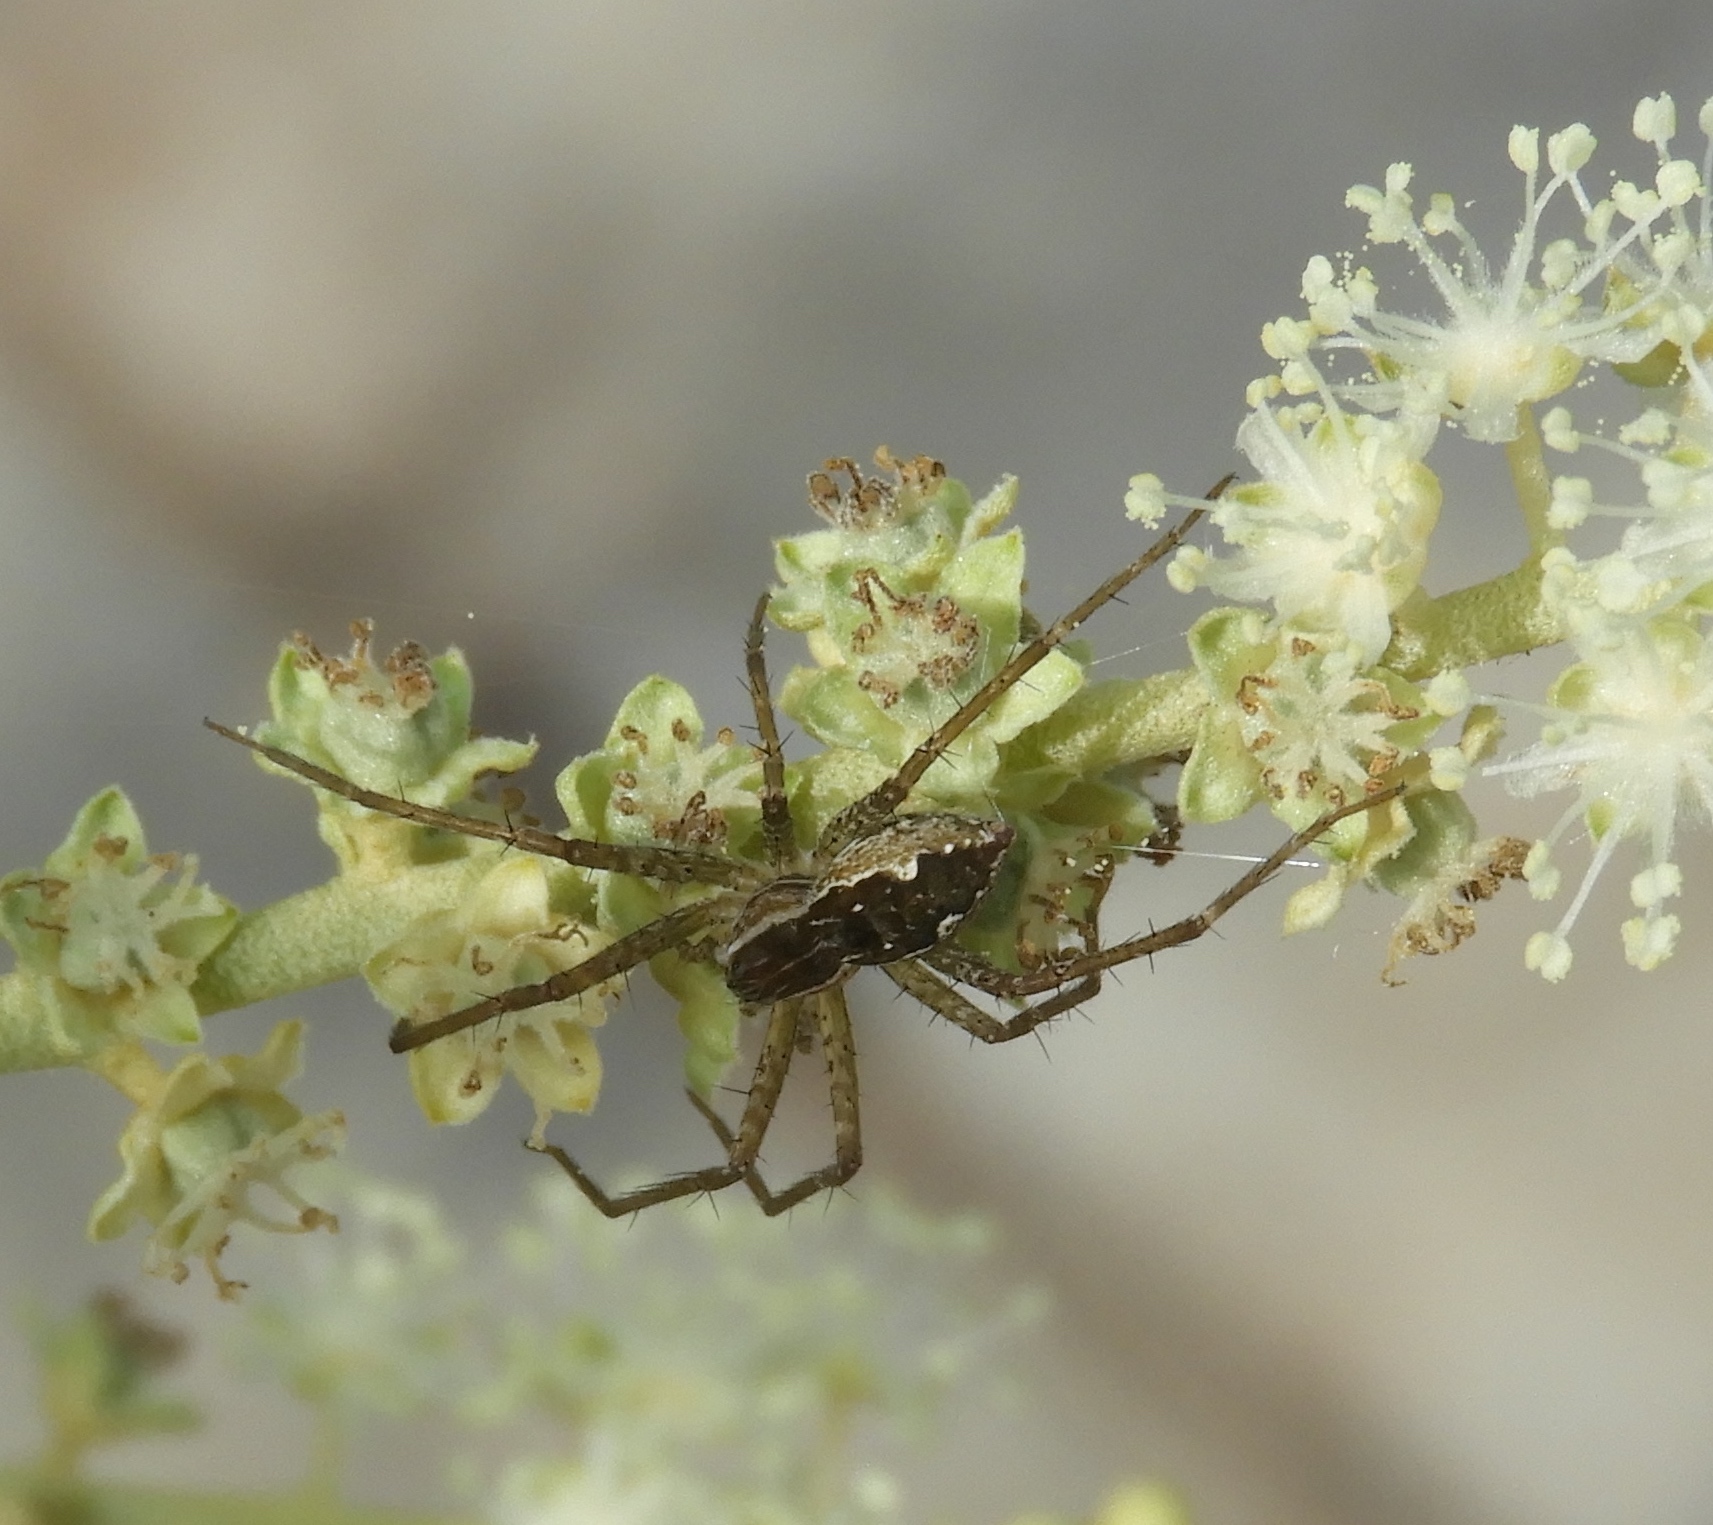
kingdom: Animalia
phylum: Arthropoda
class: Arachnida
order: Araneae
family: Pisauridae
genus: Tinus
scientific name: Tinus
